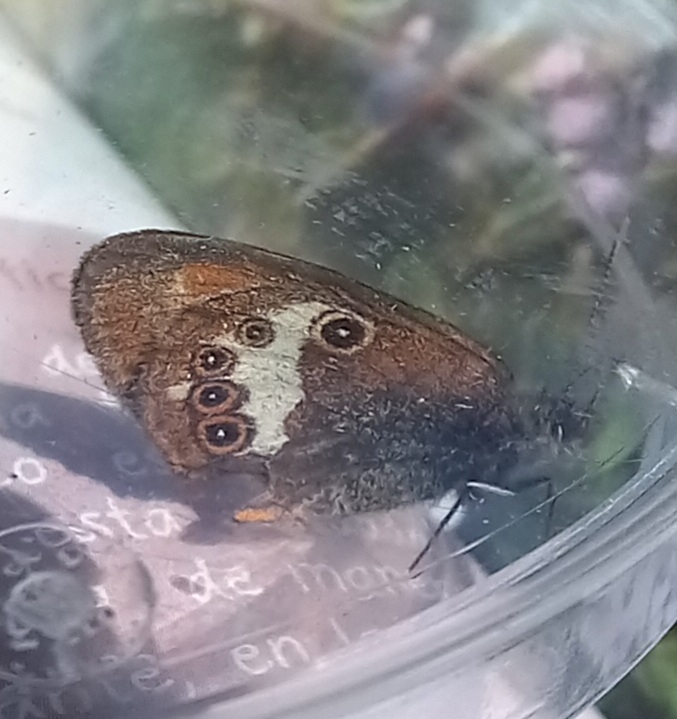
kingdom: Animalia
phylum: Arthropoda
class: Insecta
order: Lepidoptera
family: Nymphalidae
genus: Coenonympha
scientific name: Coenonympha arcania
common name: Pearly heath
